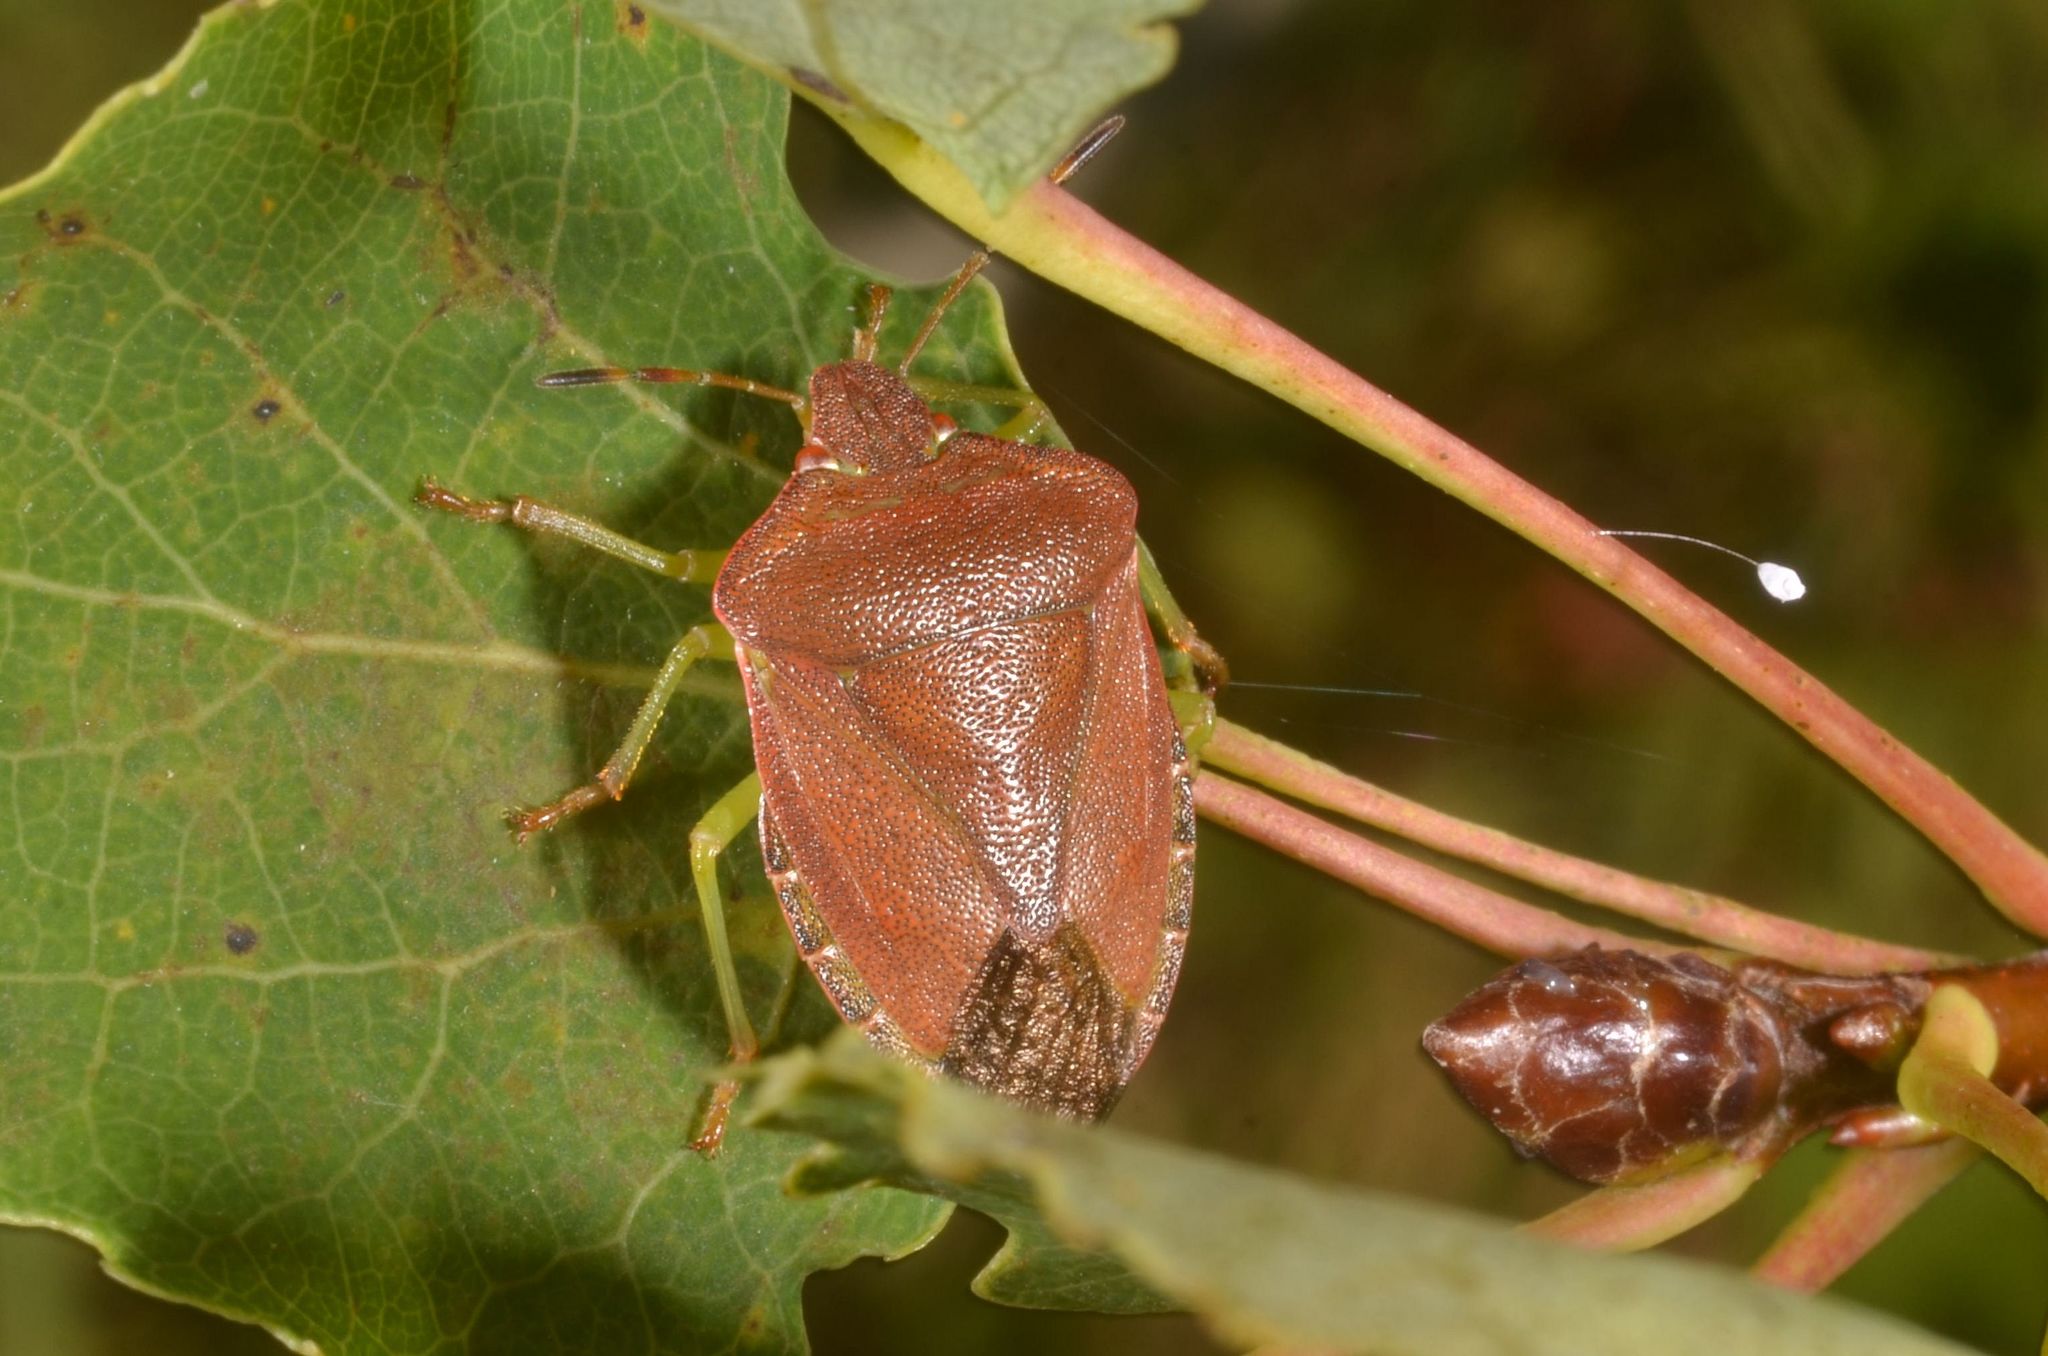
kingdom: Animalia
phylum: Arthropoda
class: Insecta
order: Hemiptera
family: Pentatomidae
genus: Palomena
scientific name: Palomena prasina
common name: Green shieldbug
